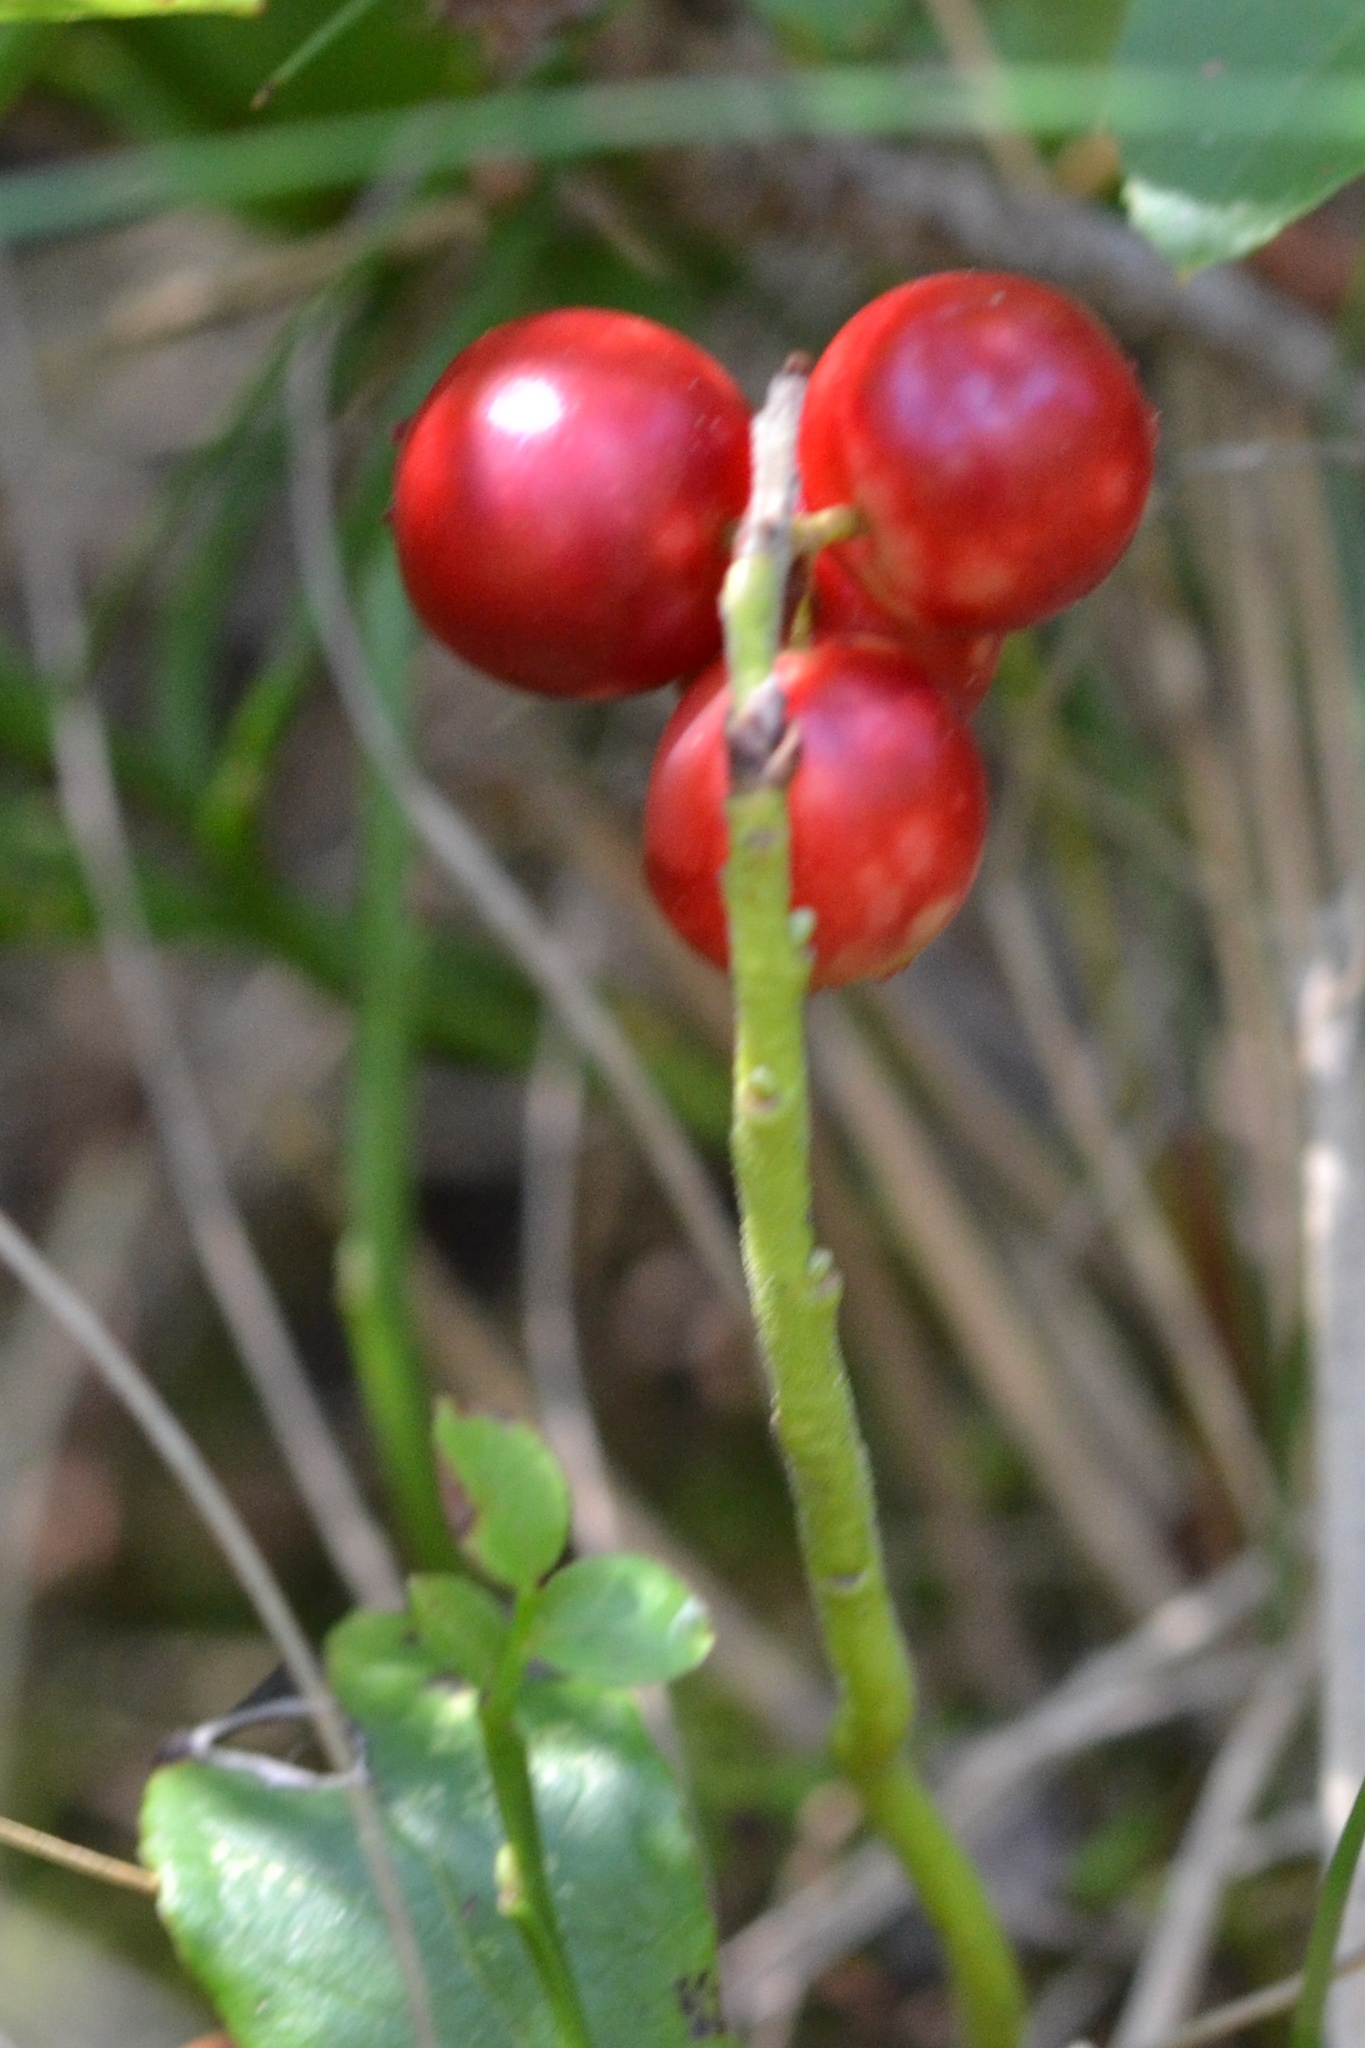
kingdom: Plantae
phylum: Tracheophyta
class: Magnoliopsida
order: Ericales
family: Ericaceae
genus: Vaccinium
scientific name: Vaccinium vitis-idaea
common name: Cowberry
